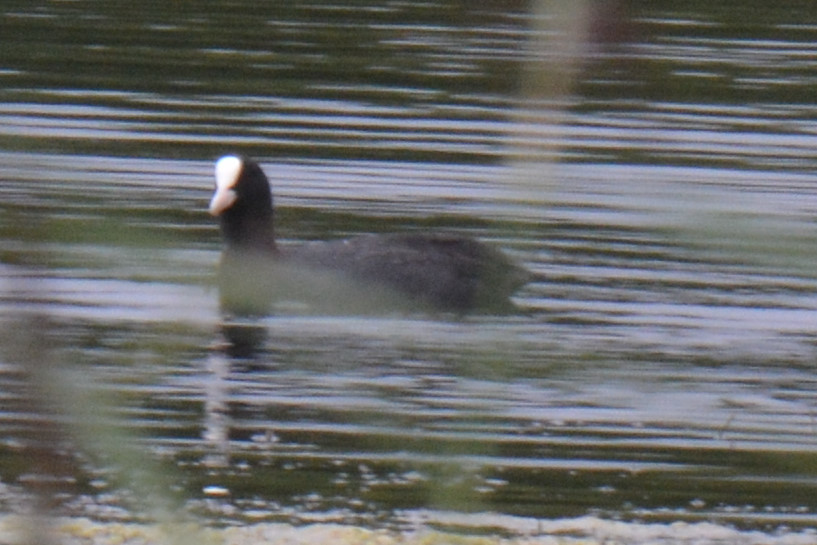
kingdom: Animalia
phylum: Chordata
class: Aves
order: Gruiformes
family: Rallidae
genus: Fulica
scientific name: Fulica atra
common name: Eurasian coot
